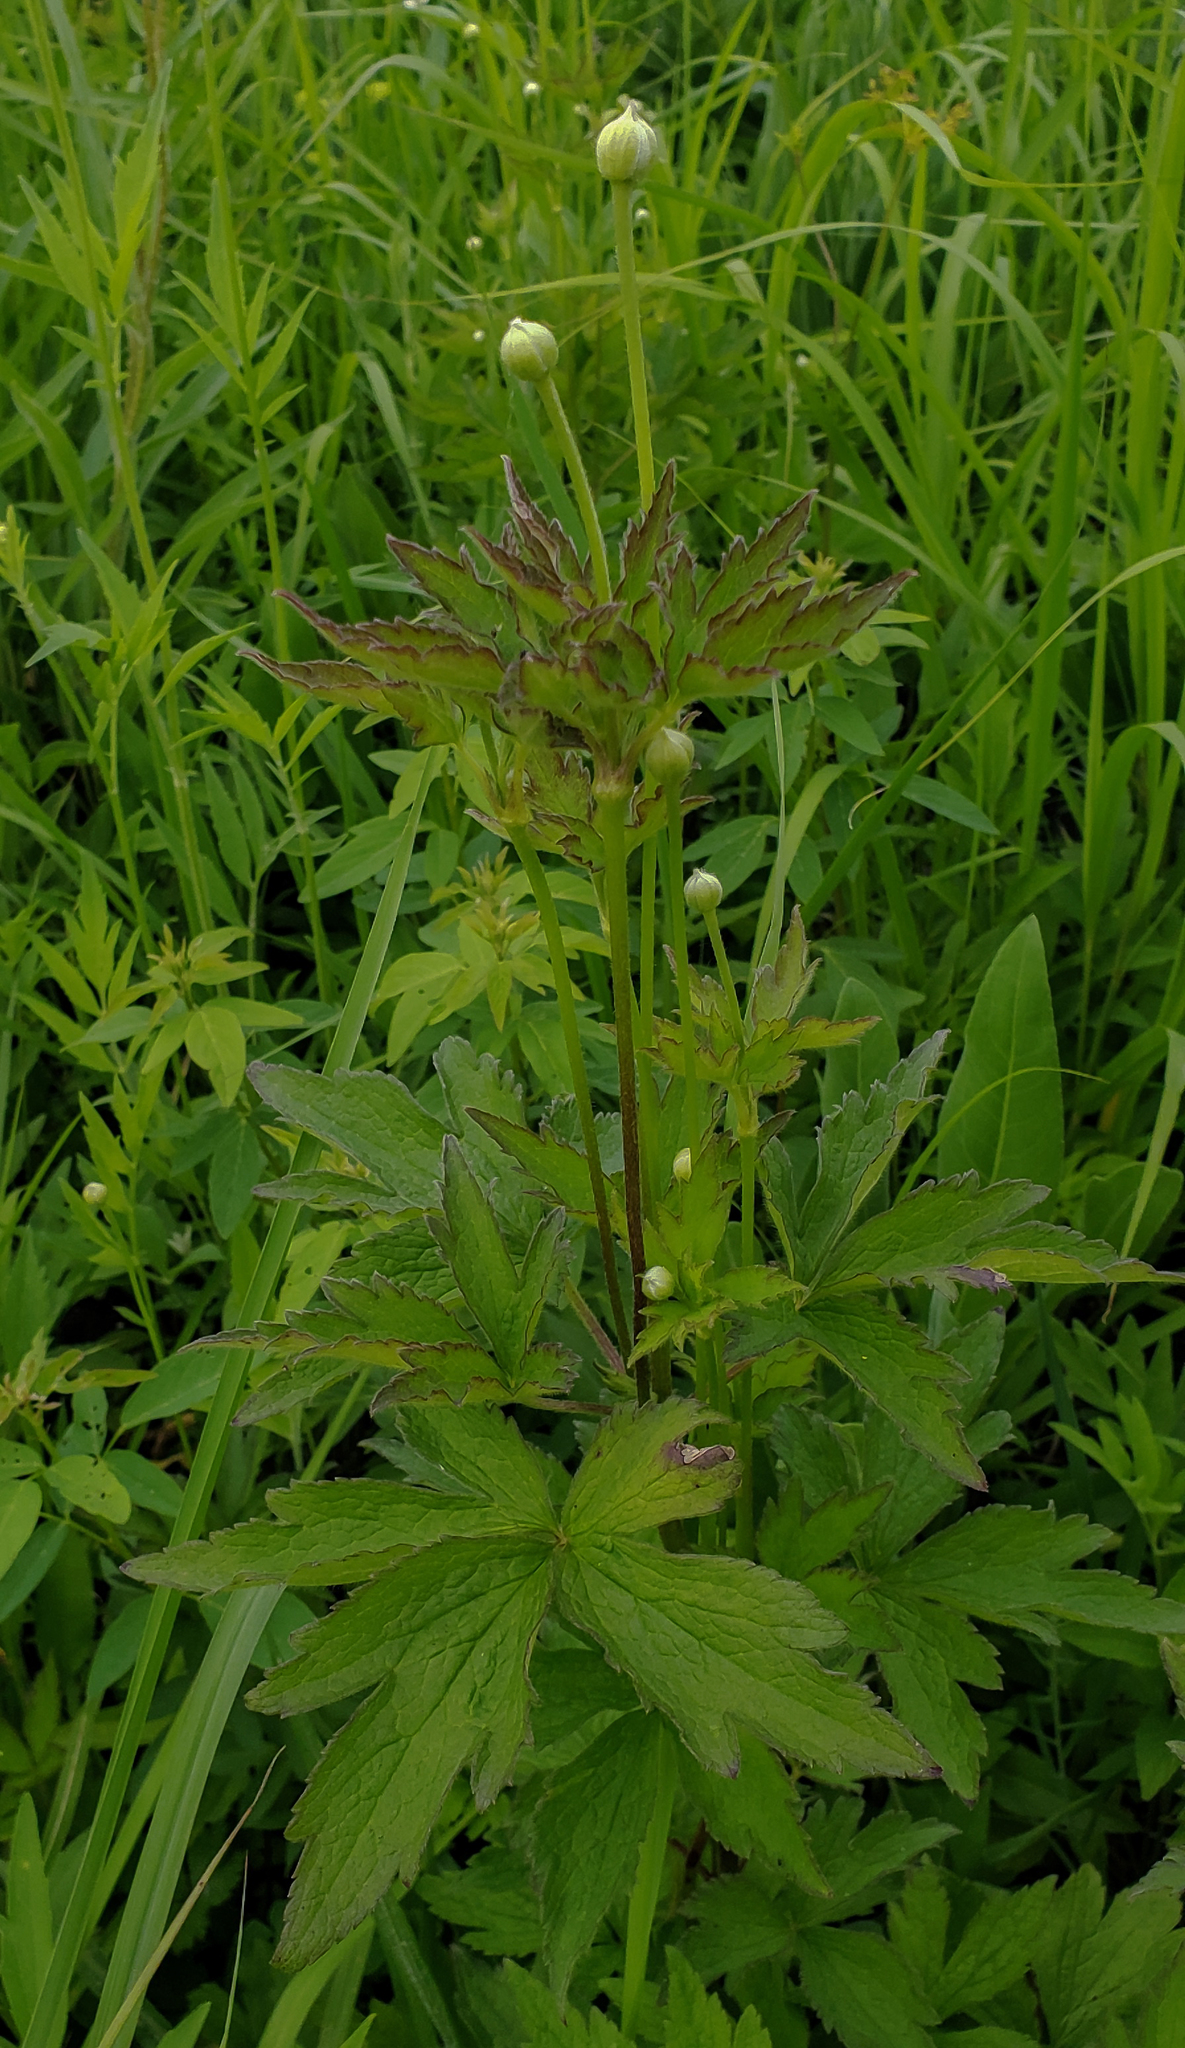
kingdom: Plantae
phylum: Tracheophyta
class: Magnoliopsida
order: Ranunculales
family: Ranunculaceae
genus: Anemone
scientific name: Anemone virginiana
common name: Tall anemone
